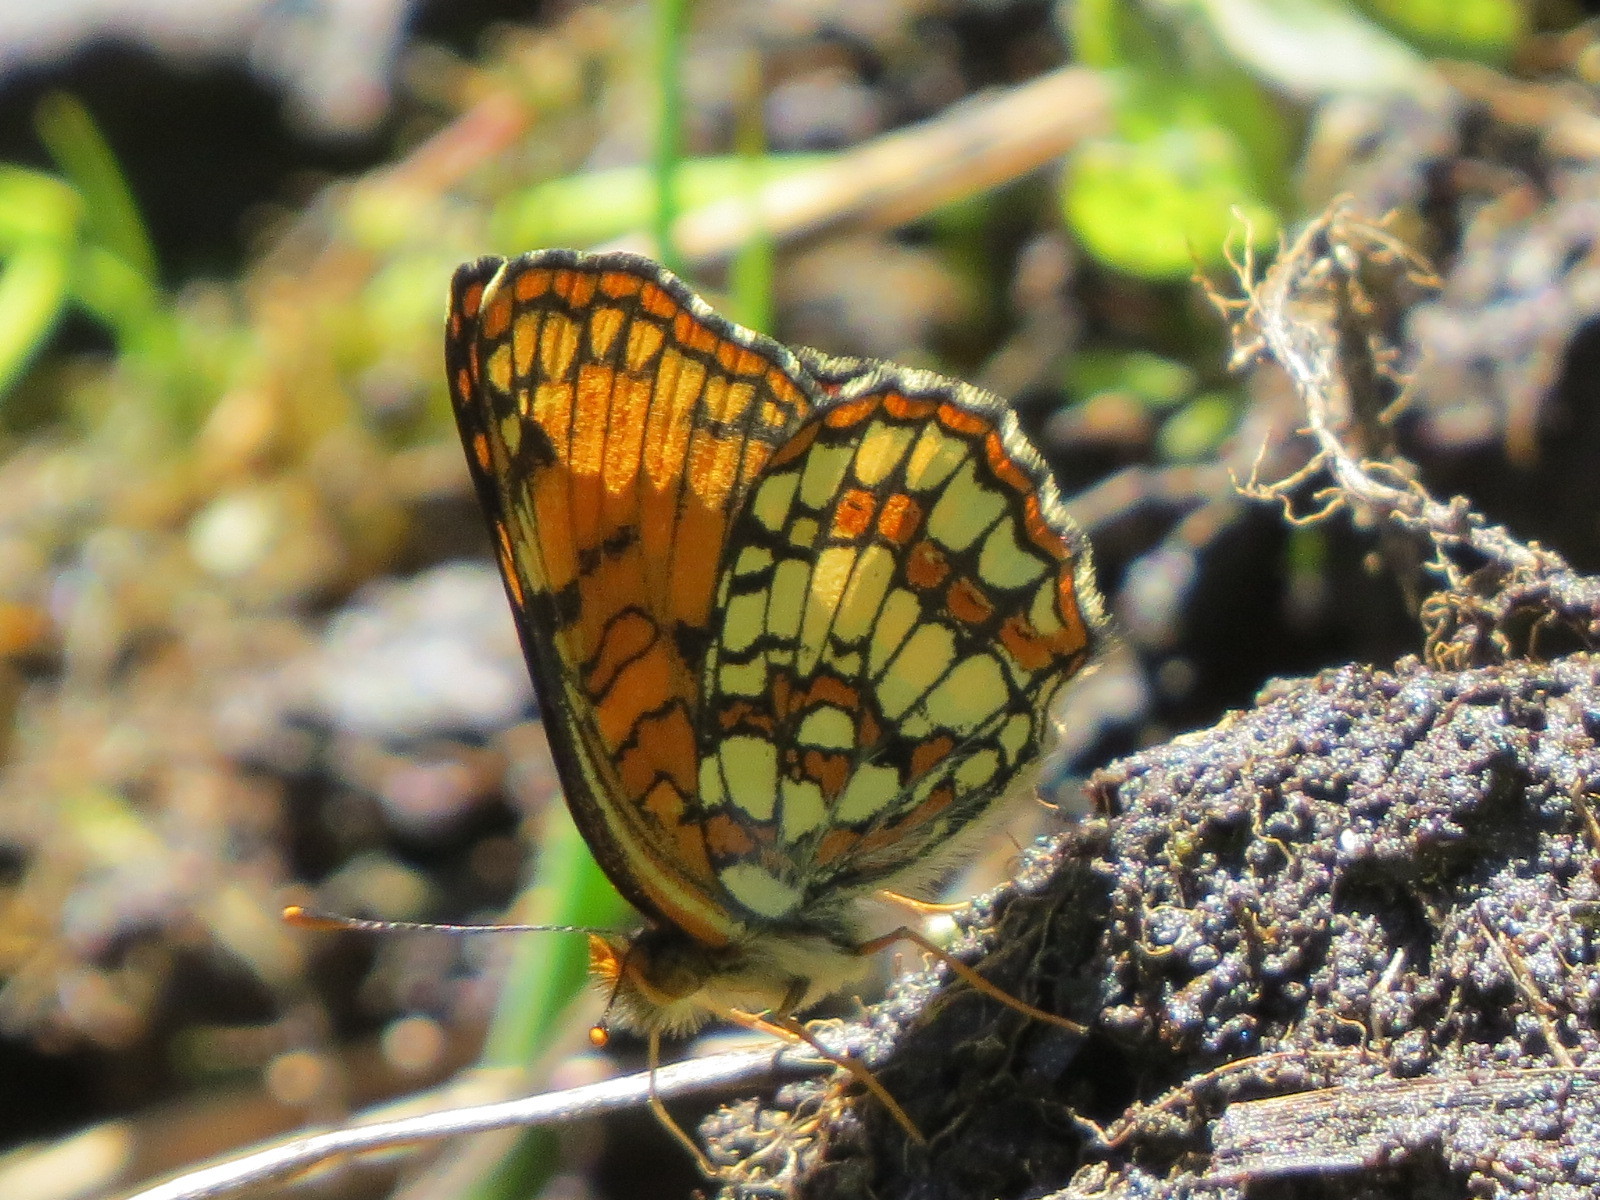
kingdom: Animalia
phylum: Arthropoda
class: Insecta
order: Lepidoptera
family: Nymphalidae
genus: Chlosyne
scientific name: Chlosyne hoffmanni
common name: Hoffmann's checkerspot
